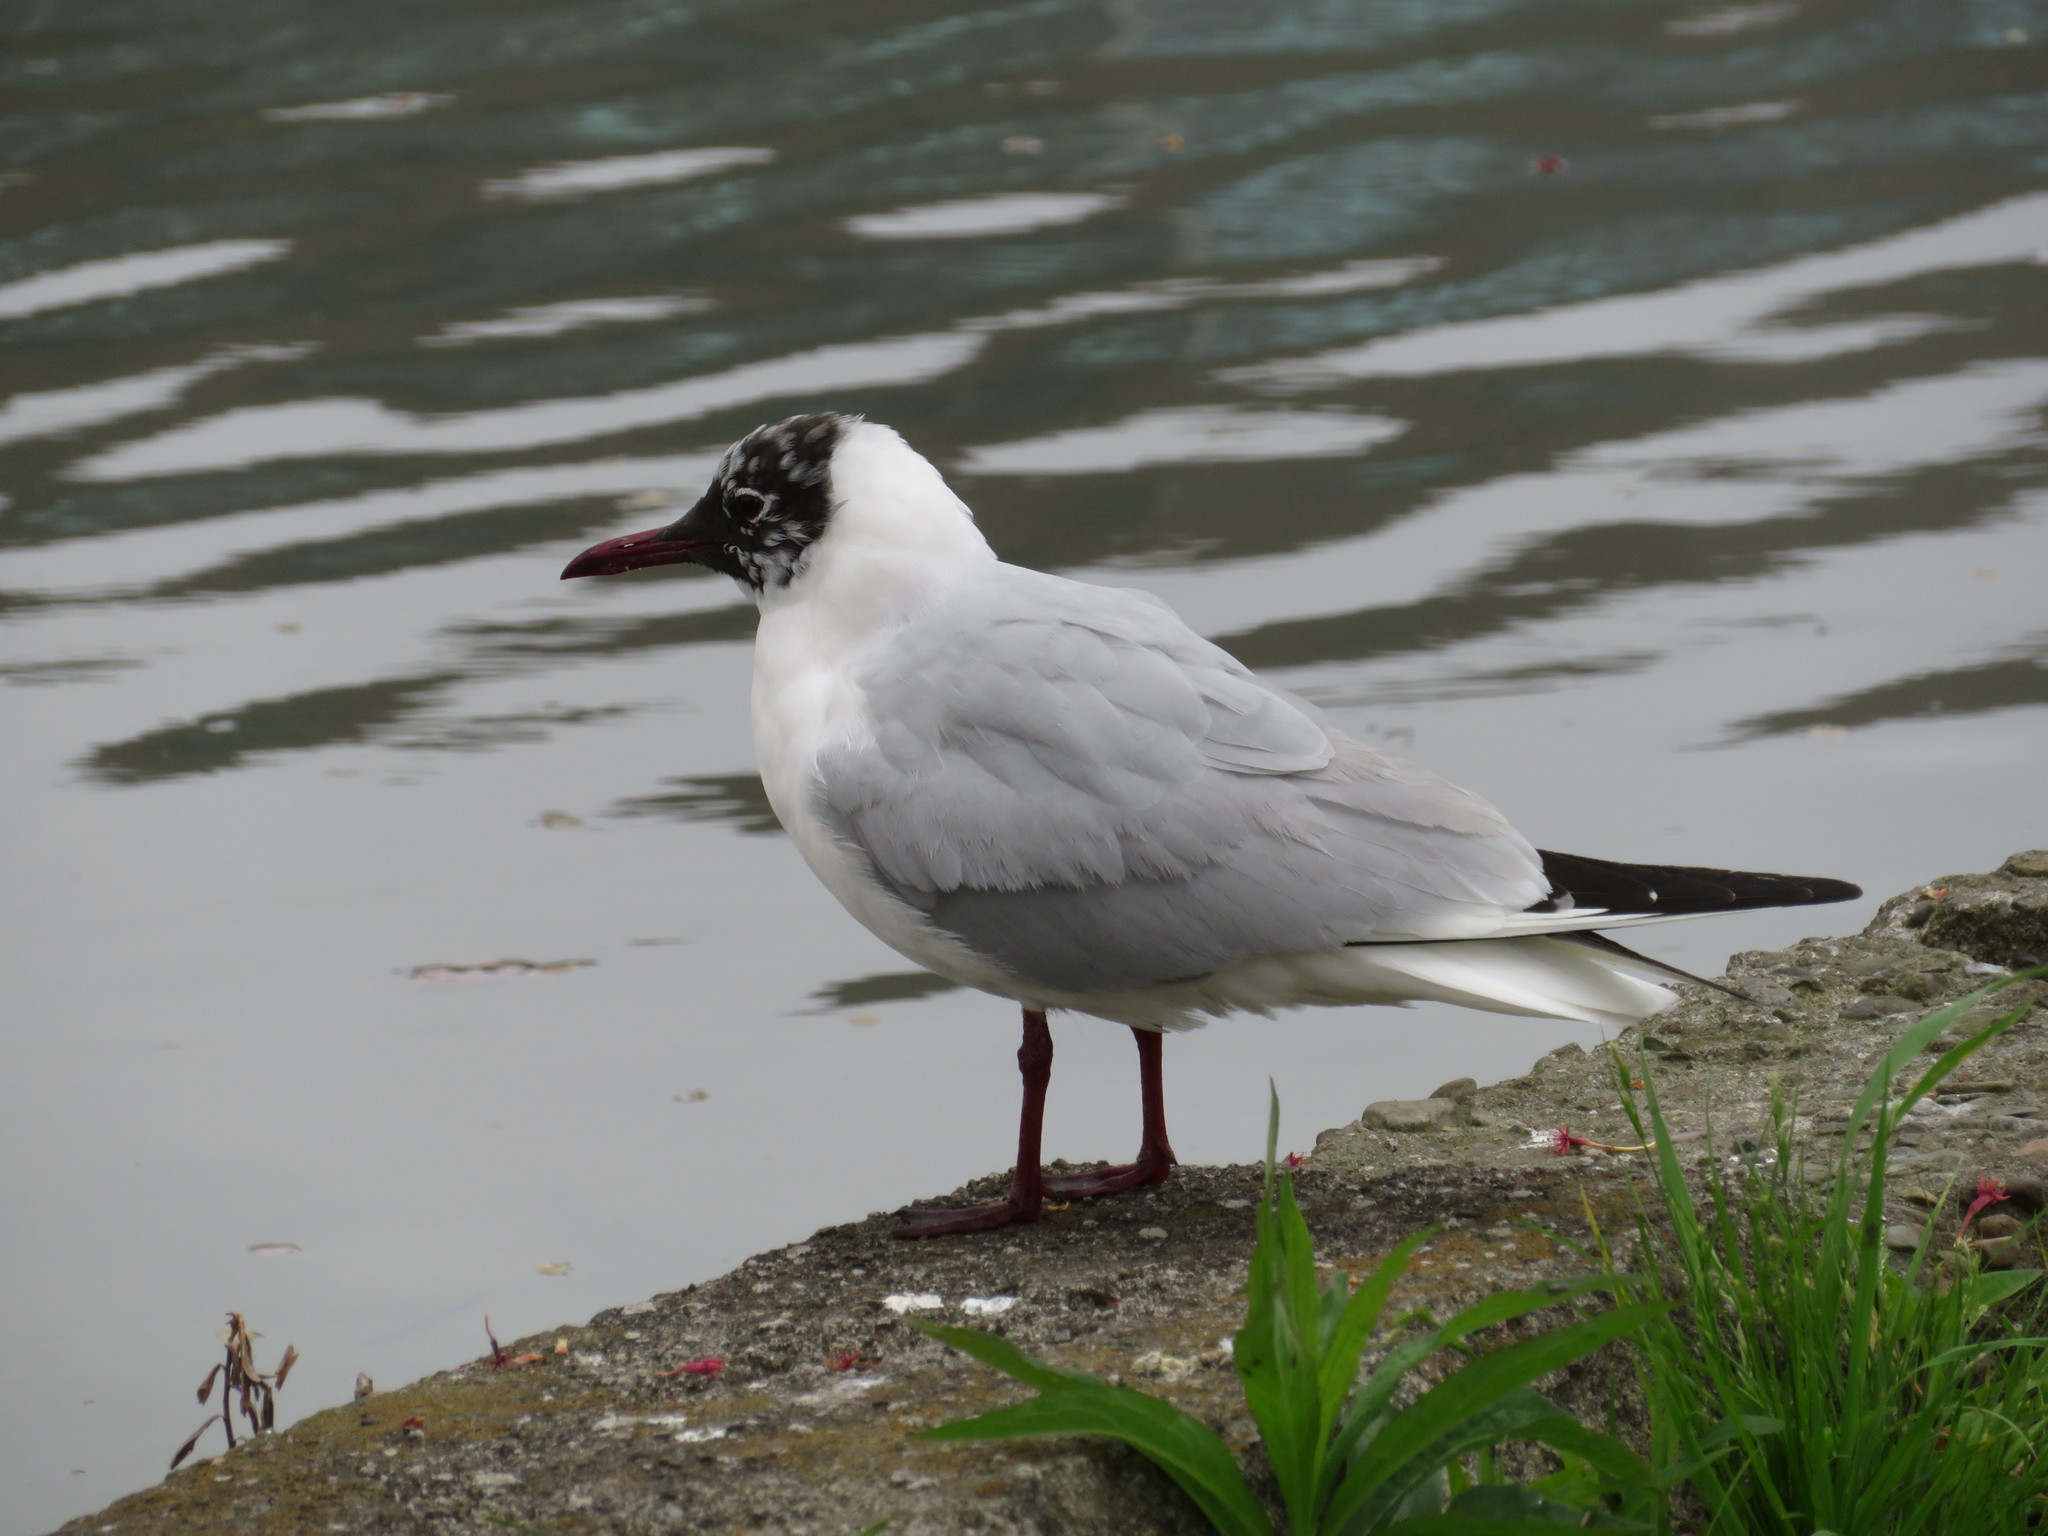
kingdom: Animalia
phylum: Chordata
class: Aves
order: Charadriiformes
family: Laridae
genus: Chroicocephalus
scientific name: Chroicocephalus ridibundus
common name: Black-headed gull
